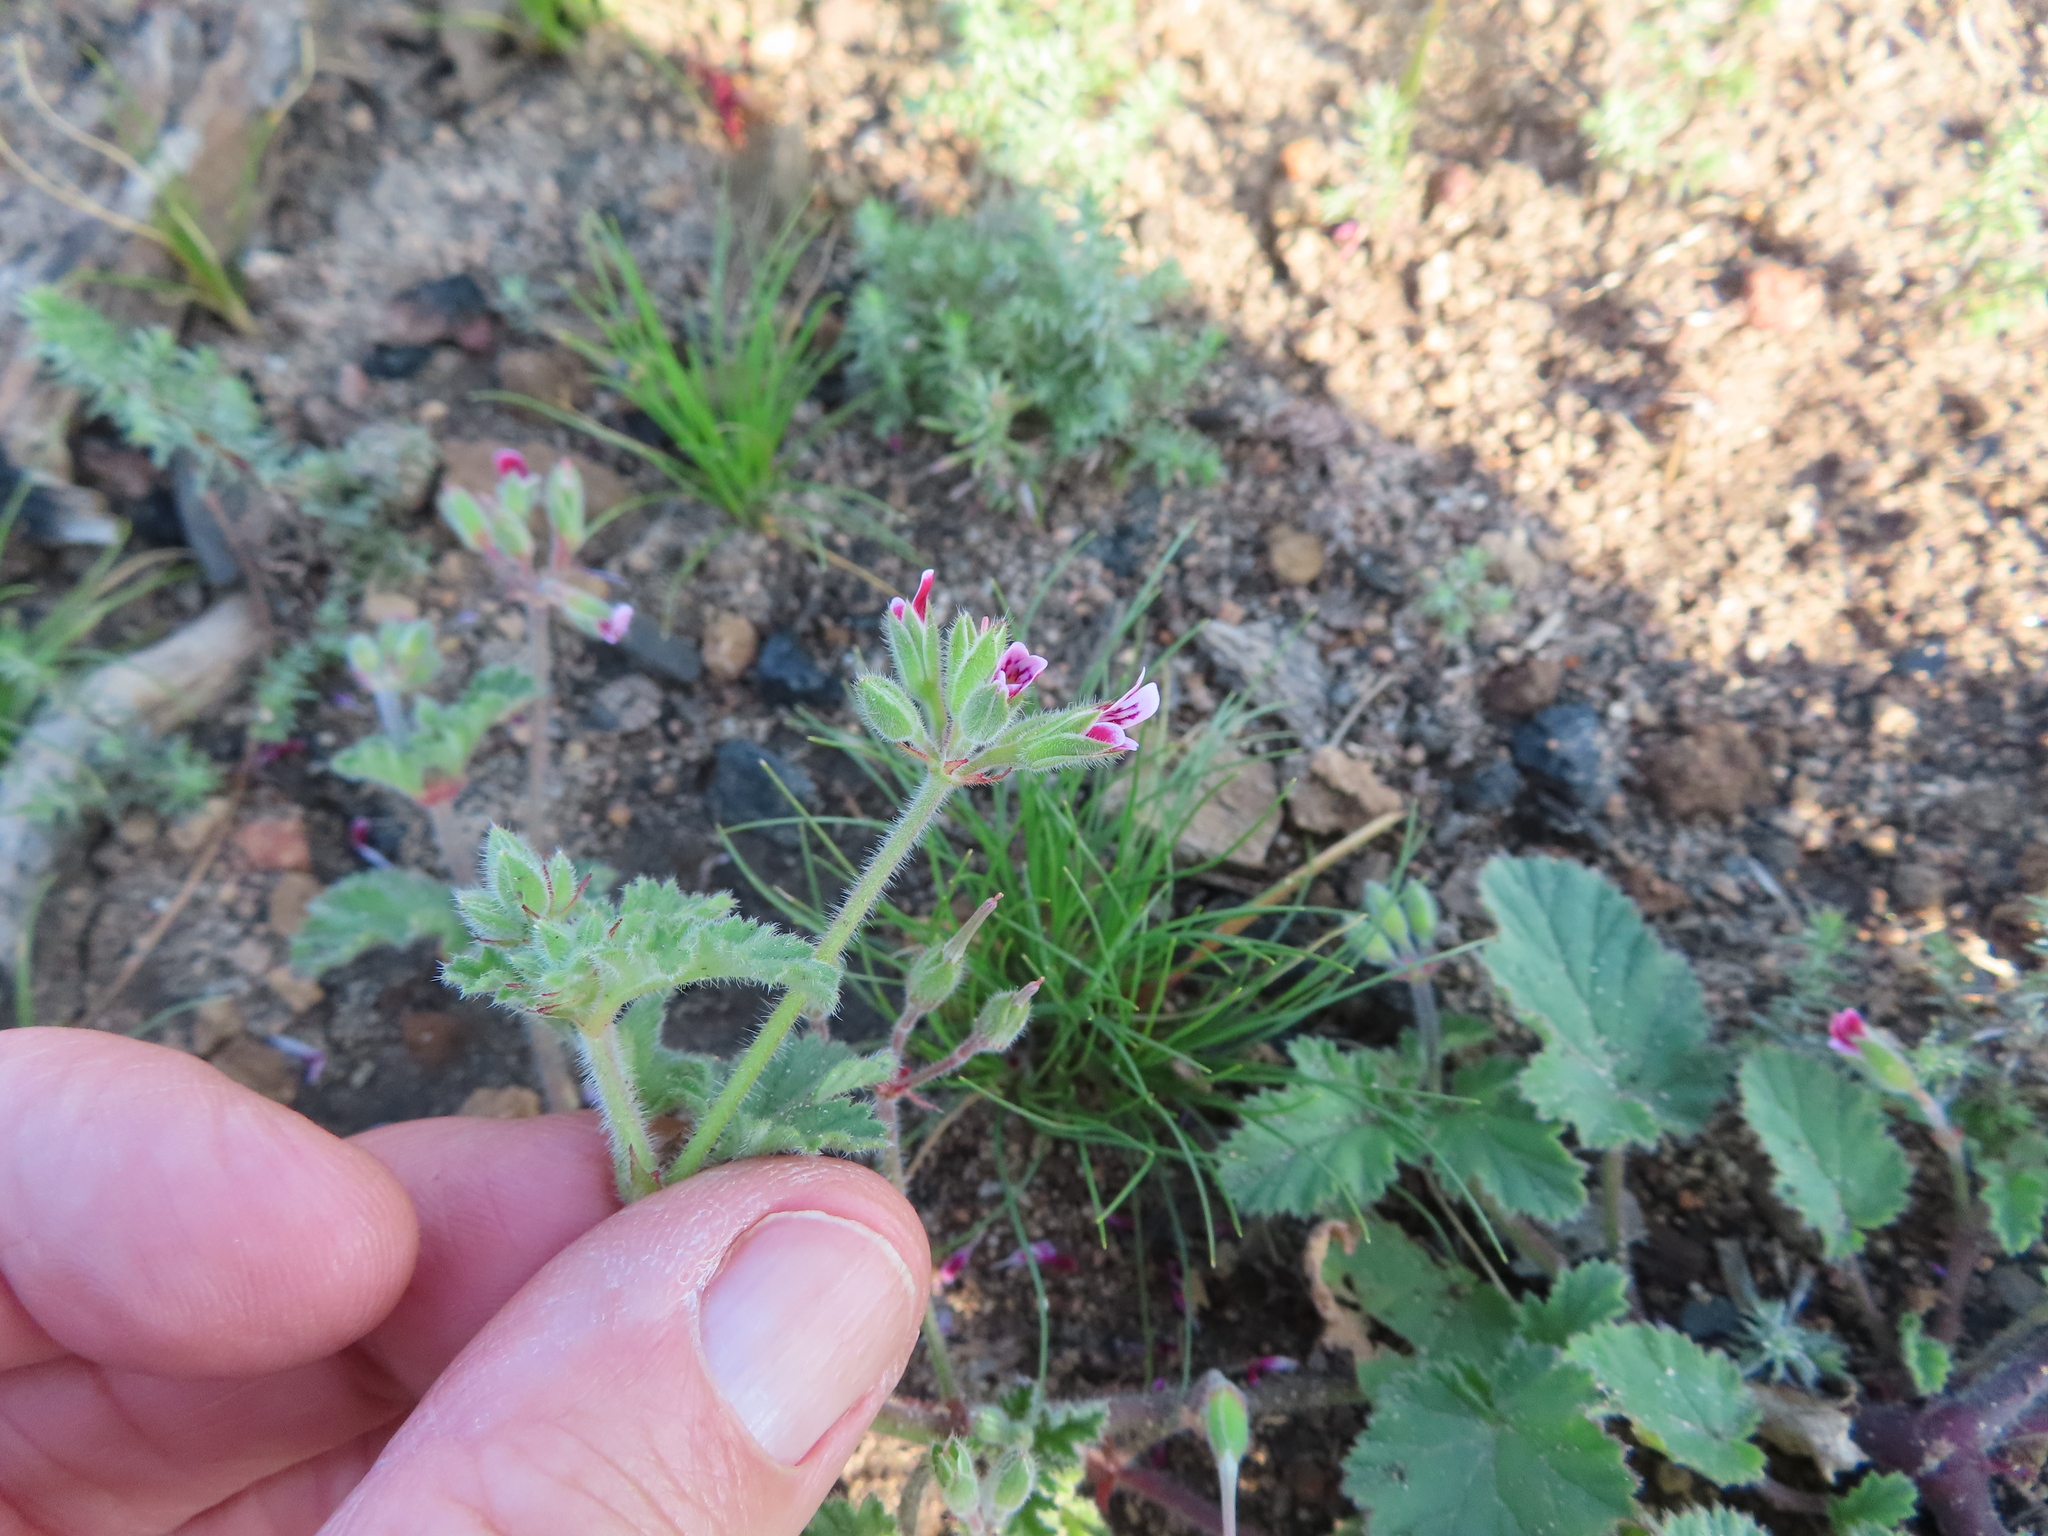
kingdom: Plantae
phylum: Tracheophyta
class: Magnoliopsida
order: Geraniales
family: Geraniaceae
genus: Pelargonium
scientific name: Pelargonium althaeoides
